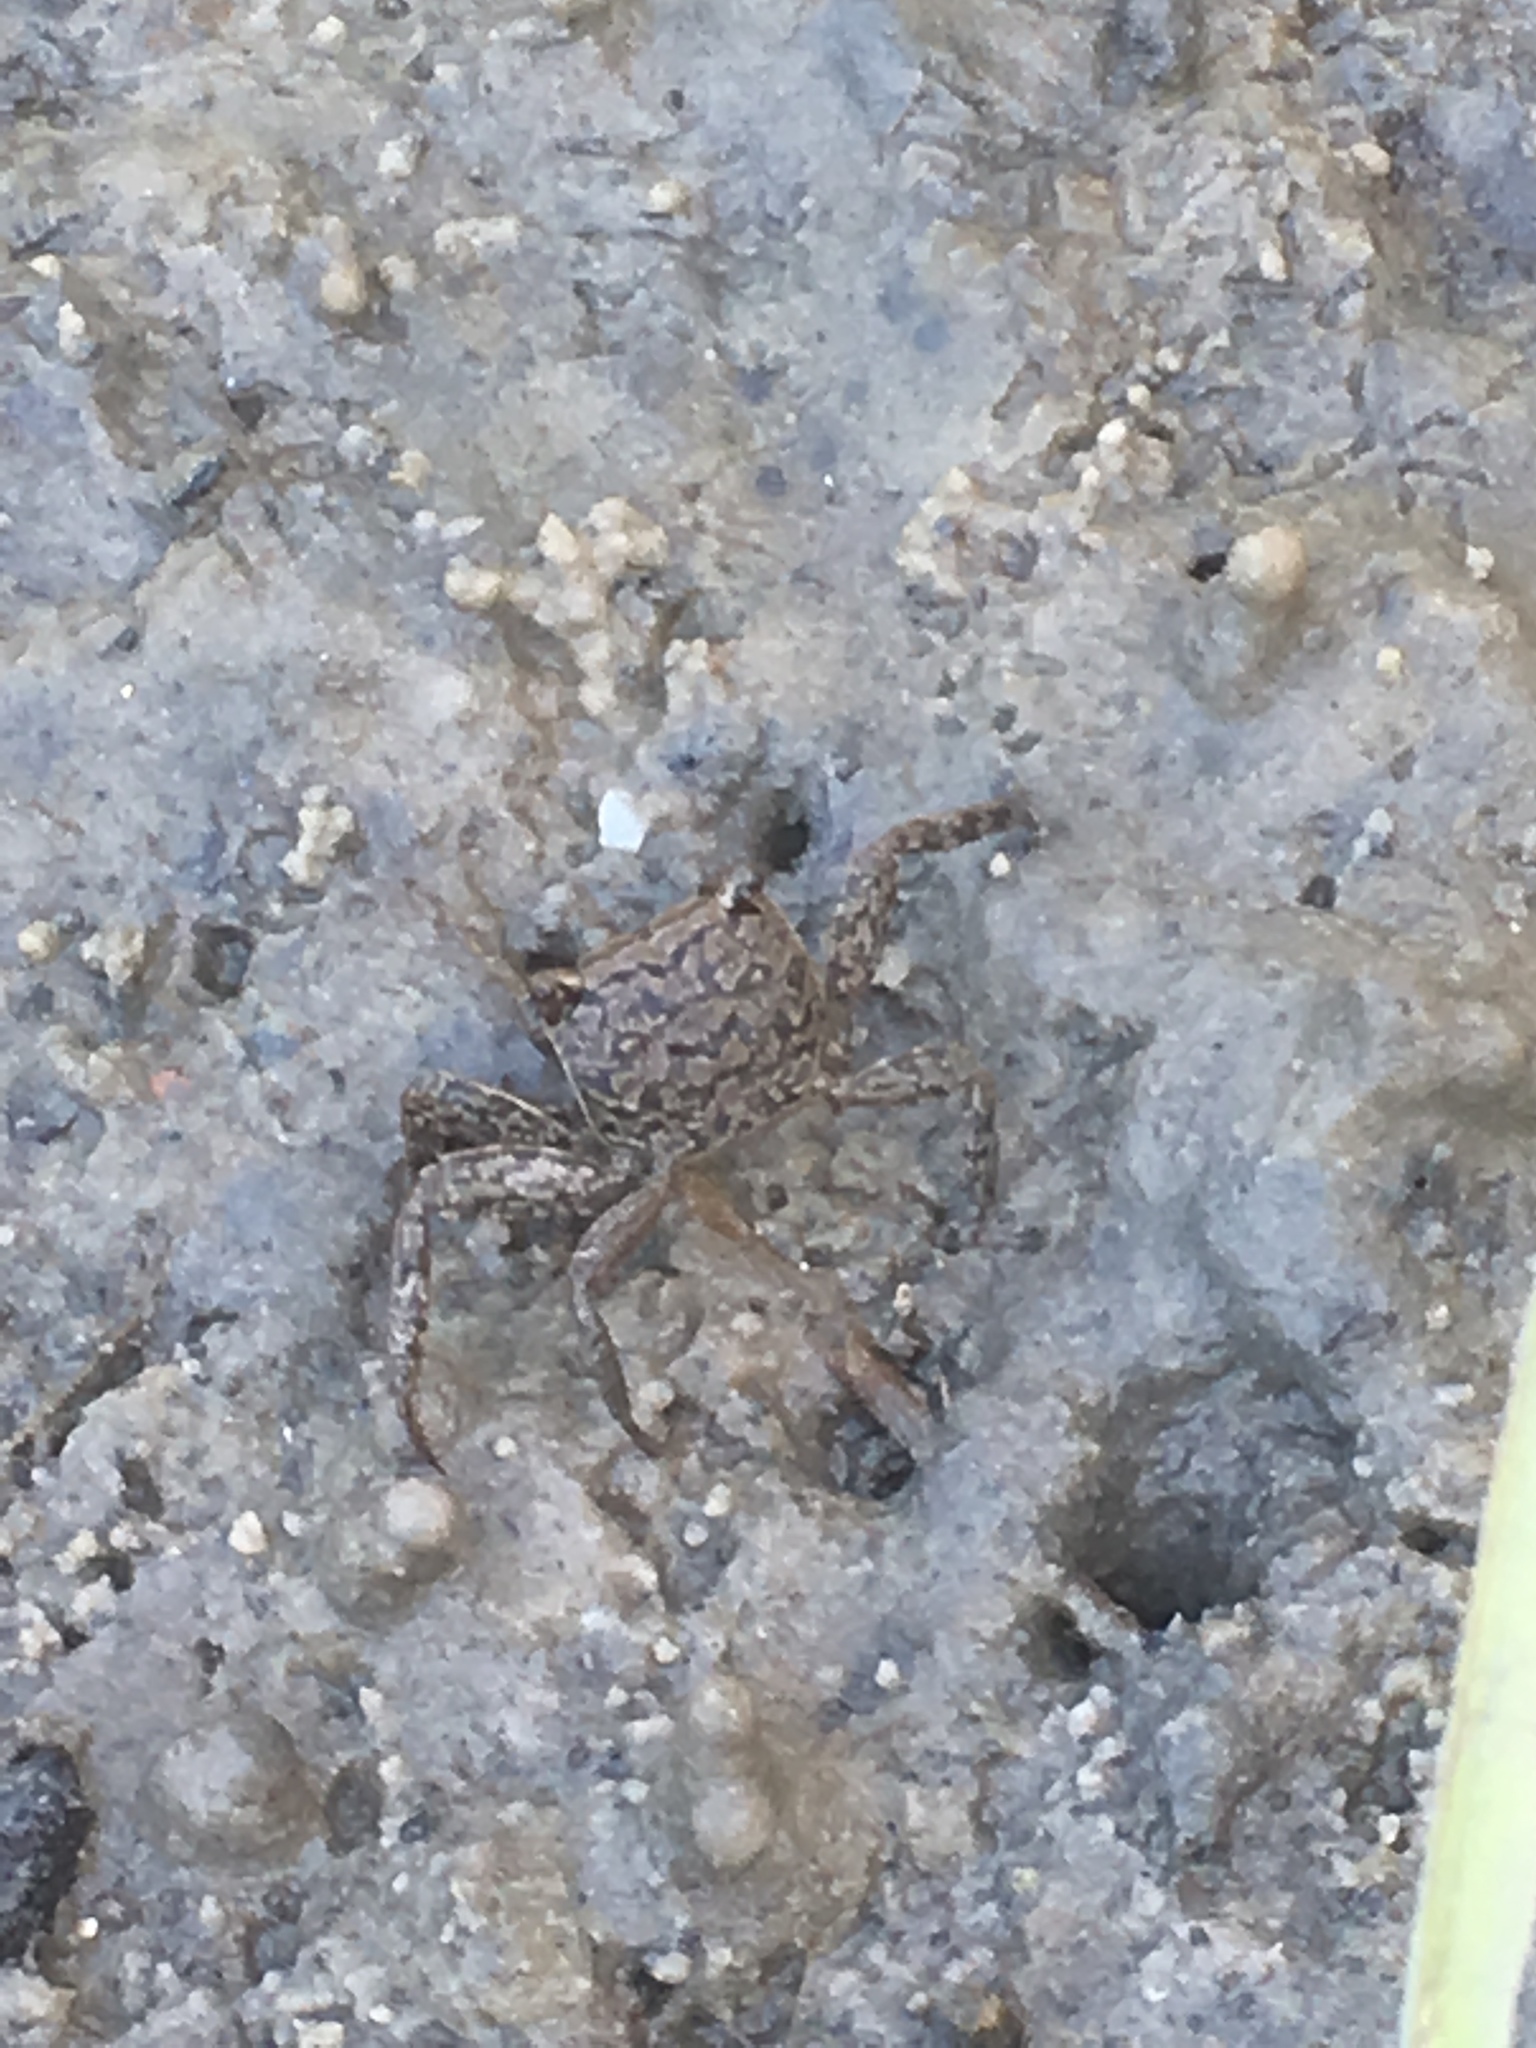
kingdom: Animalia
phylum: Arthropoda
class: Malacostraca
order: Decapoda
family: Sesarmidae
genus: Armases
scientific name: Armases cinereum
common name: Squareback marsh crab
